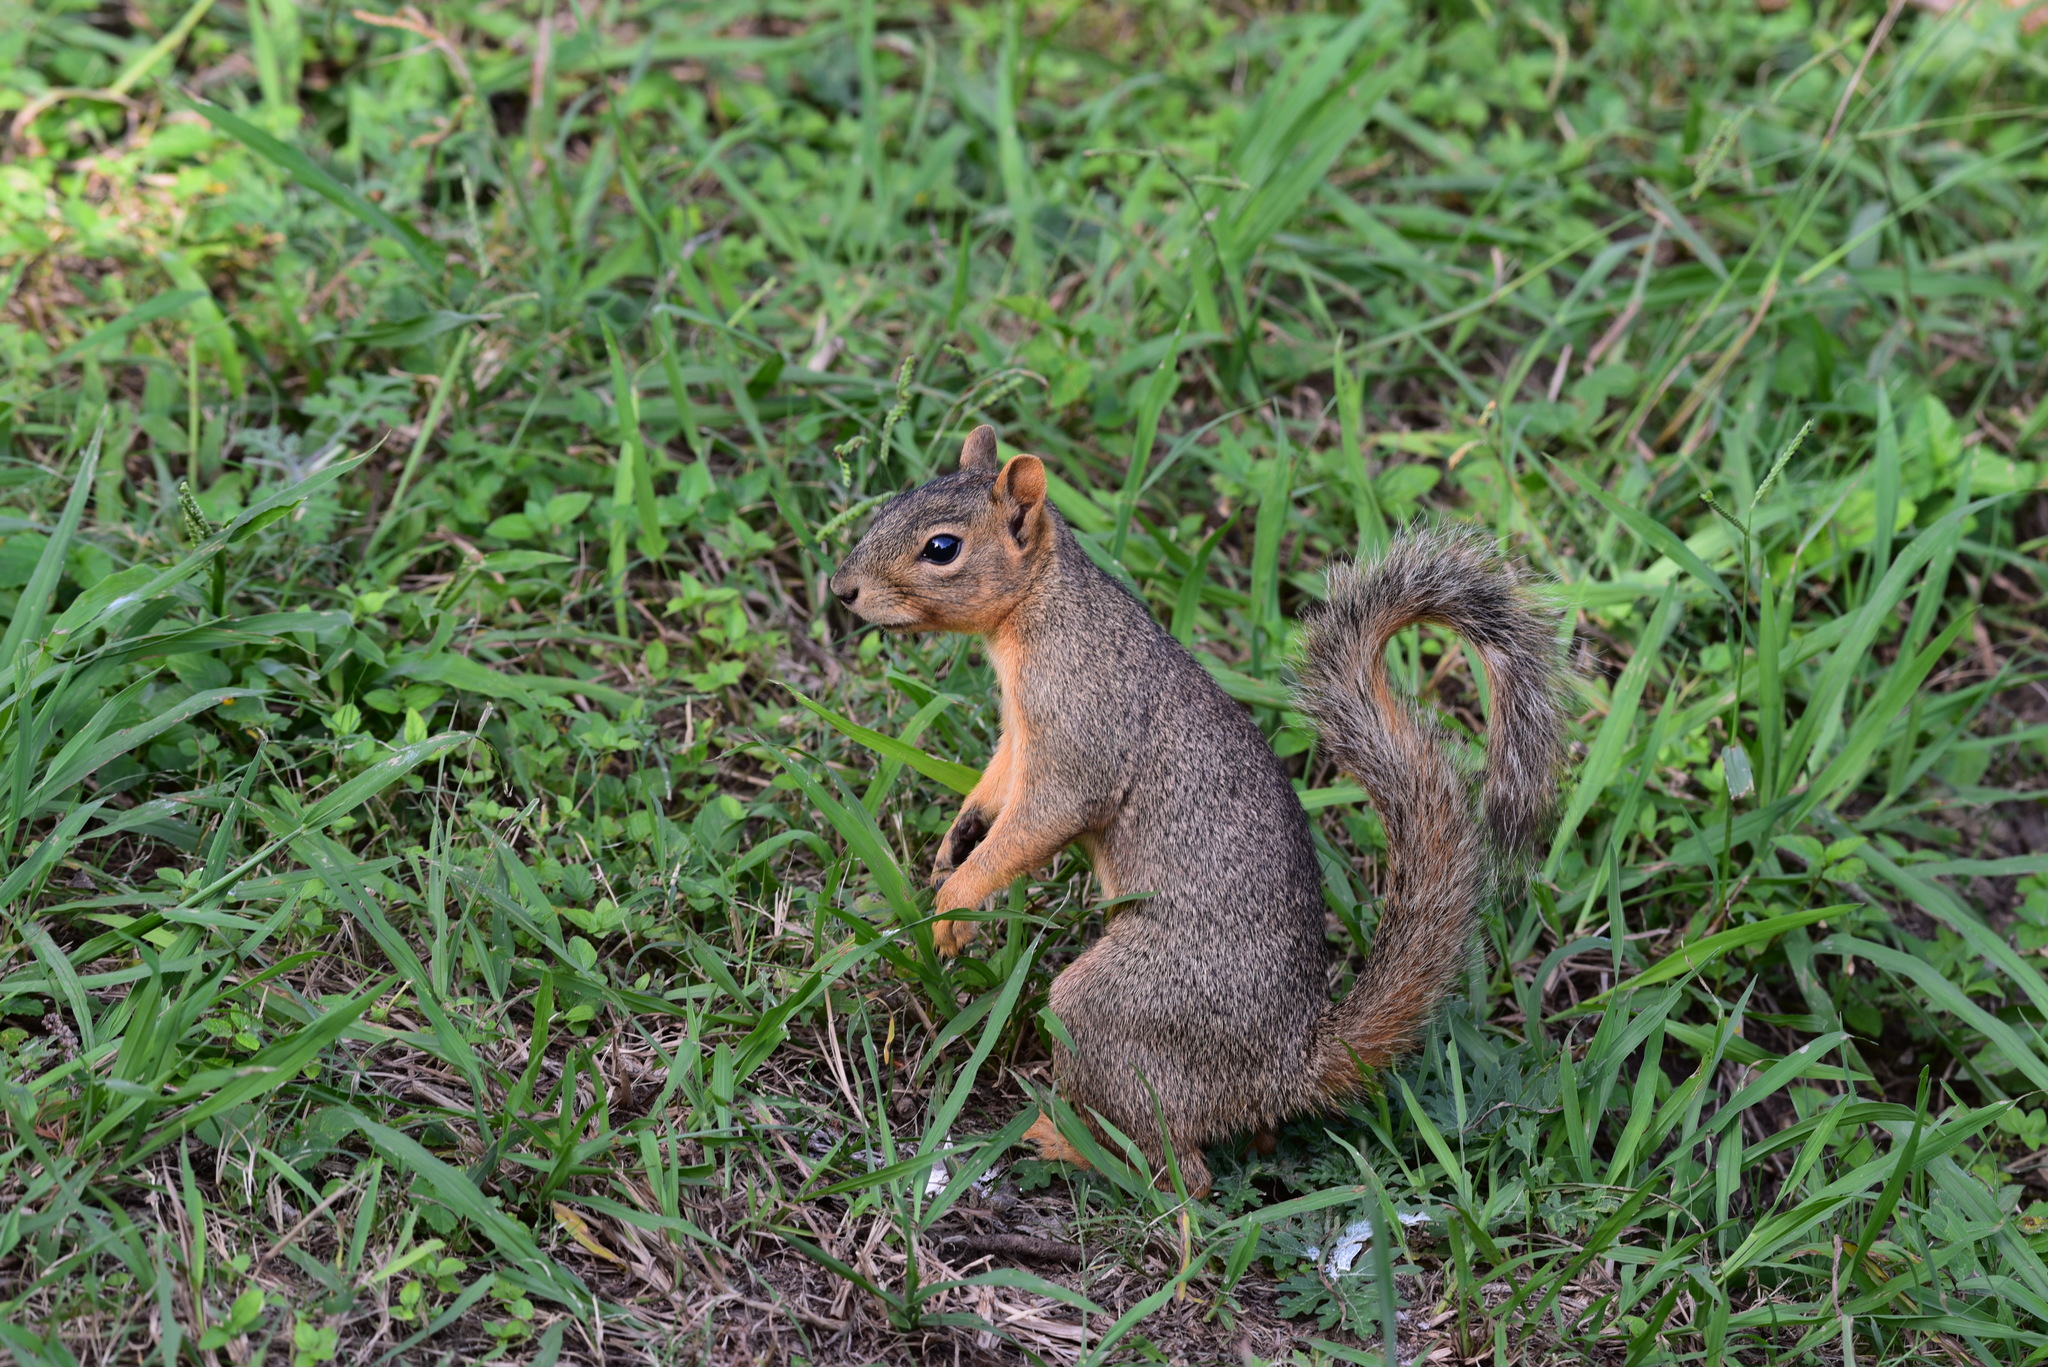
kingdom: Animalia
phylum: Chordata
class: Mammalia
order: Rodentia
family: Sciuridae
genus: Sciurus
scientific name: Sciurus niger
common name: Fox squirrel
